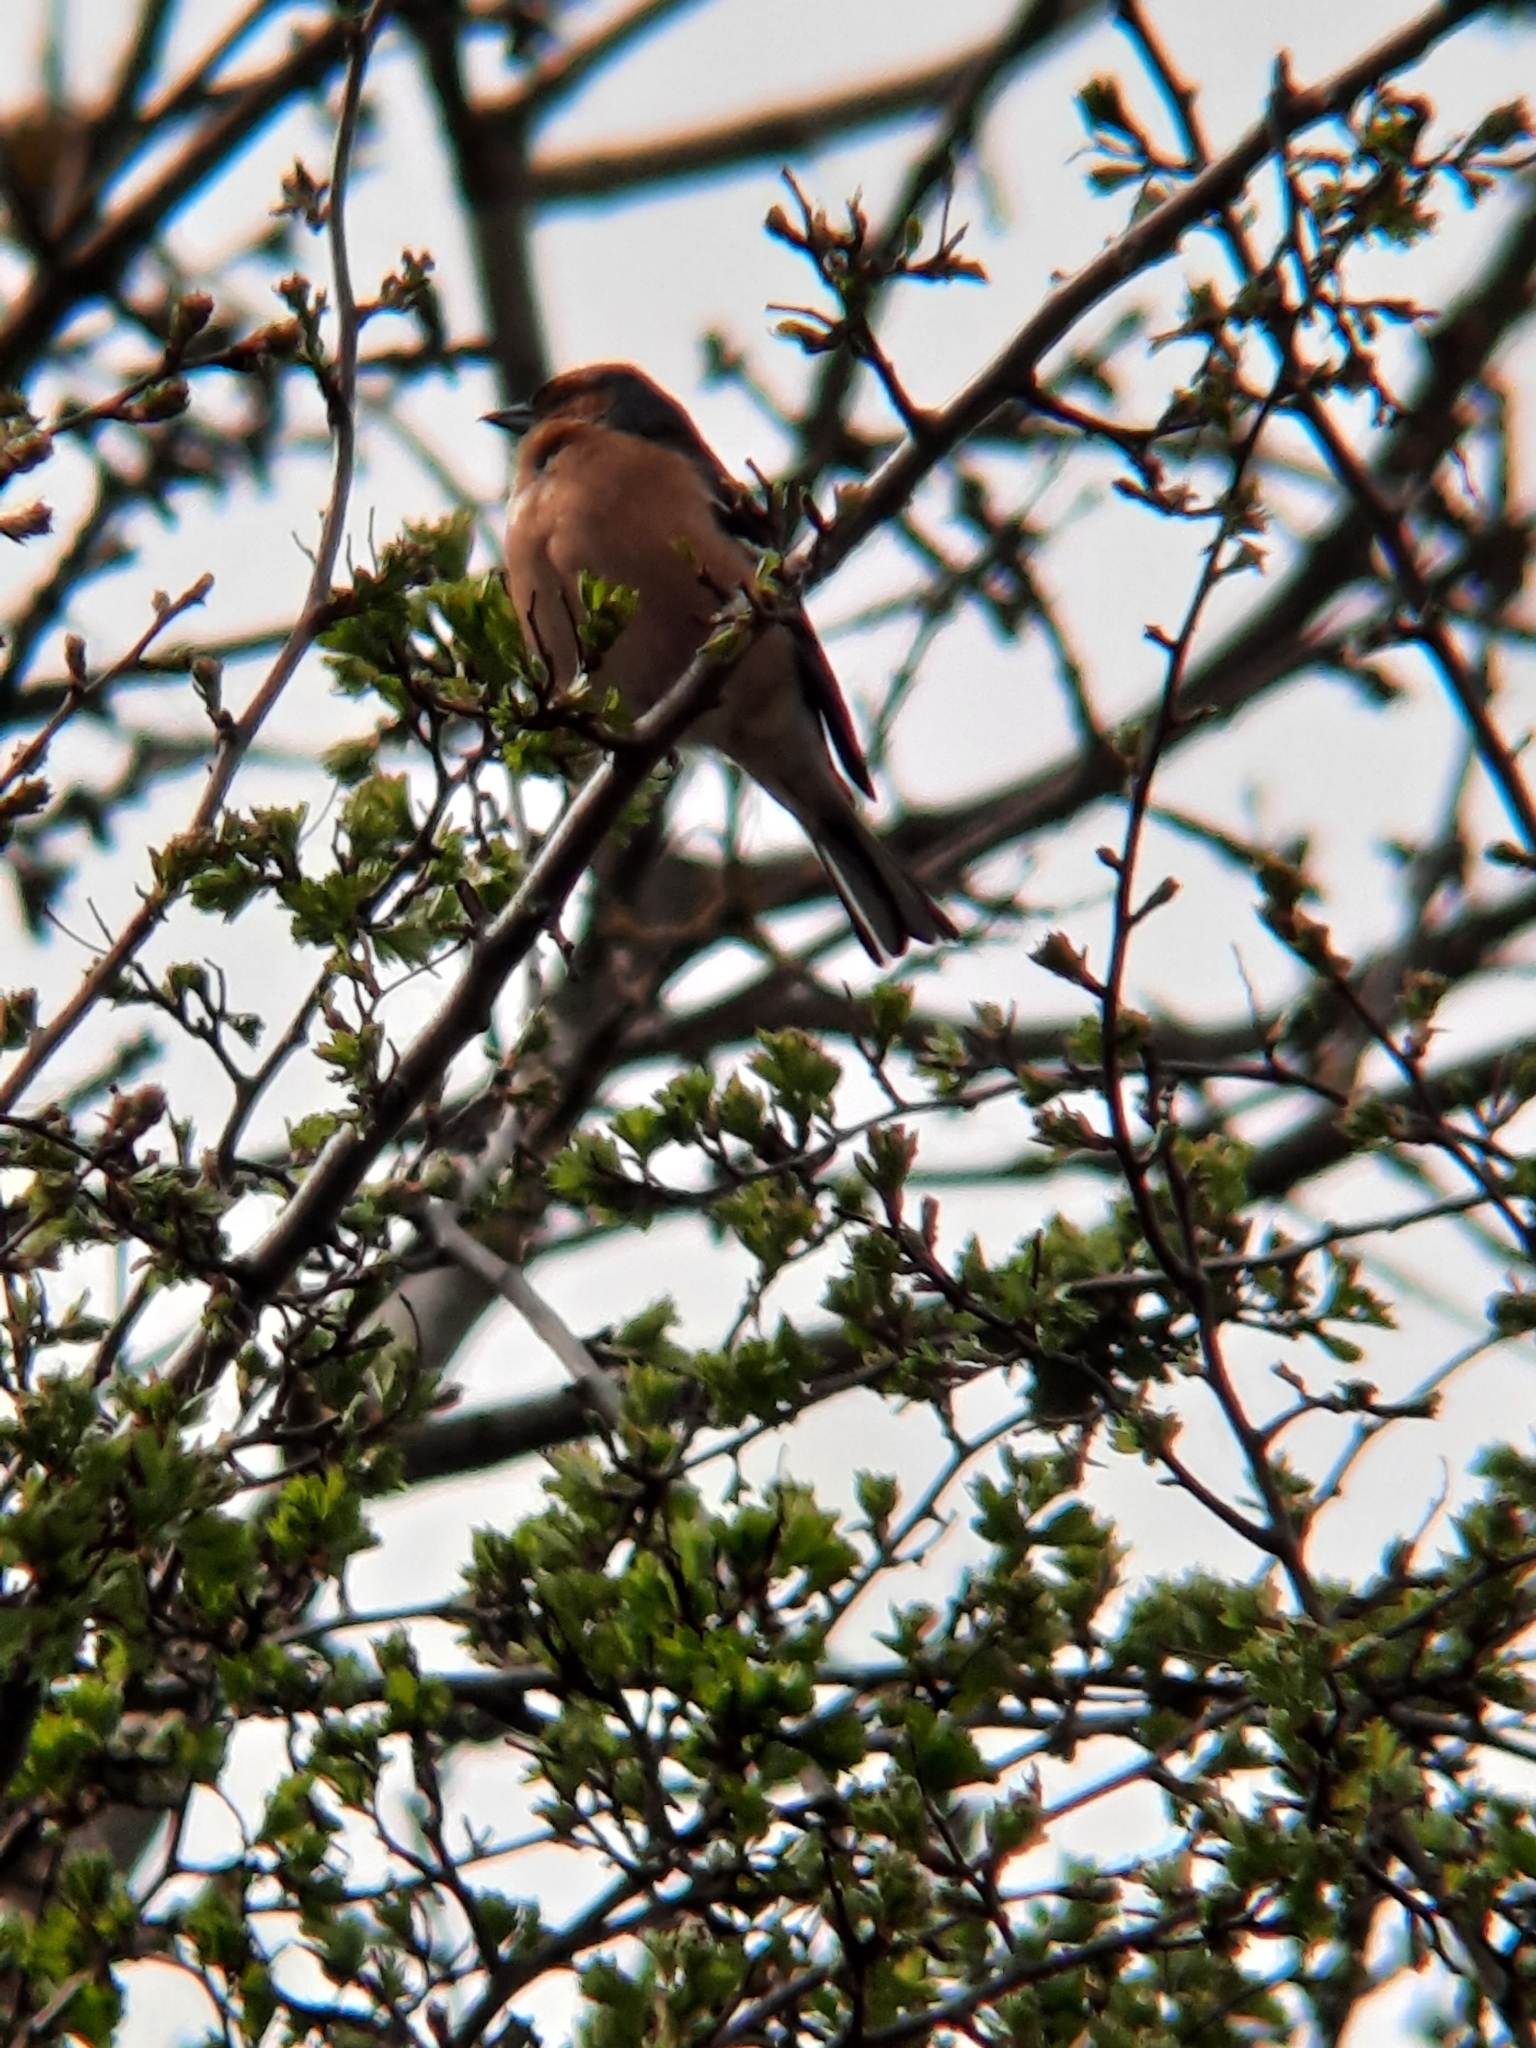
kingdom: Animalia
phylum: Chordata
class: Aves
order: Passeriformes
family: Fringillidae
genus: Fringilla
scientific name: Fringilla coelebs
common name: Common chaffinch
